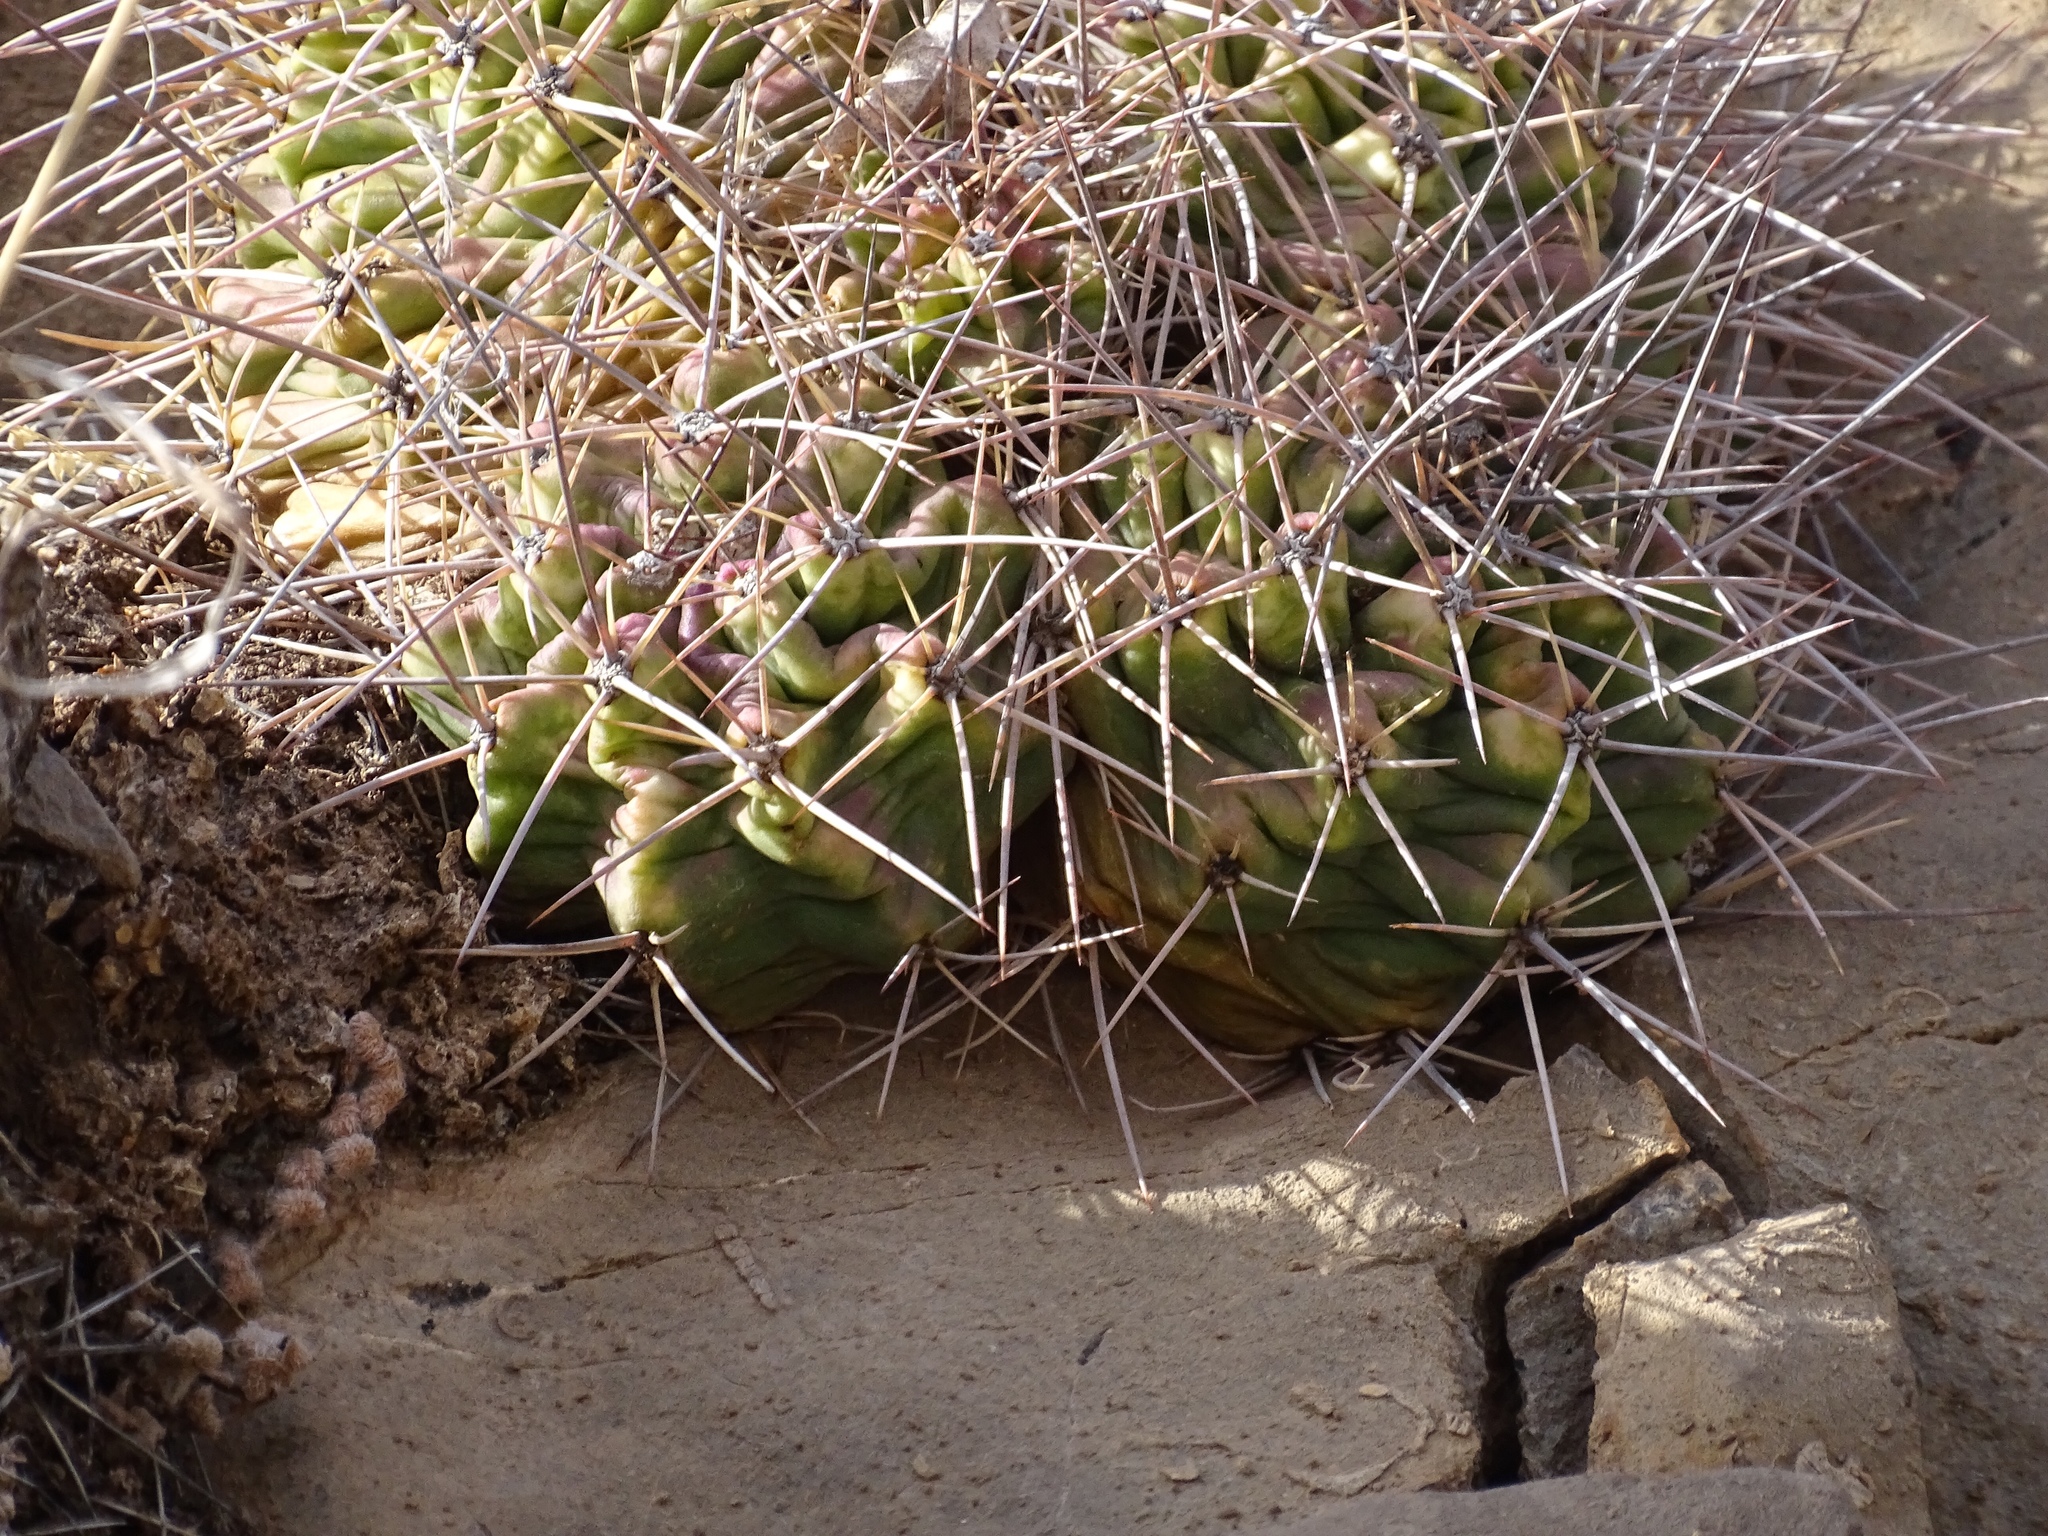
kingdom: Plantae
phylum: Tracheophyta
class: Magnoliopsida
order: Caryophyllales
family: Cactaceae
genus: Echinocereus
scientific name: Echinocereus coccineus
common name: Scarlet hedgehog cactus
